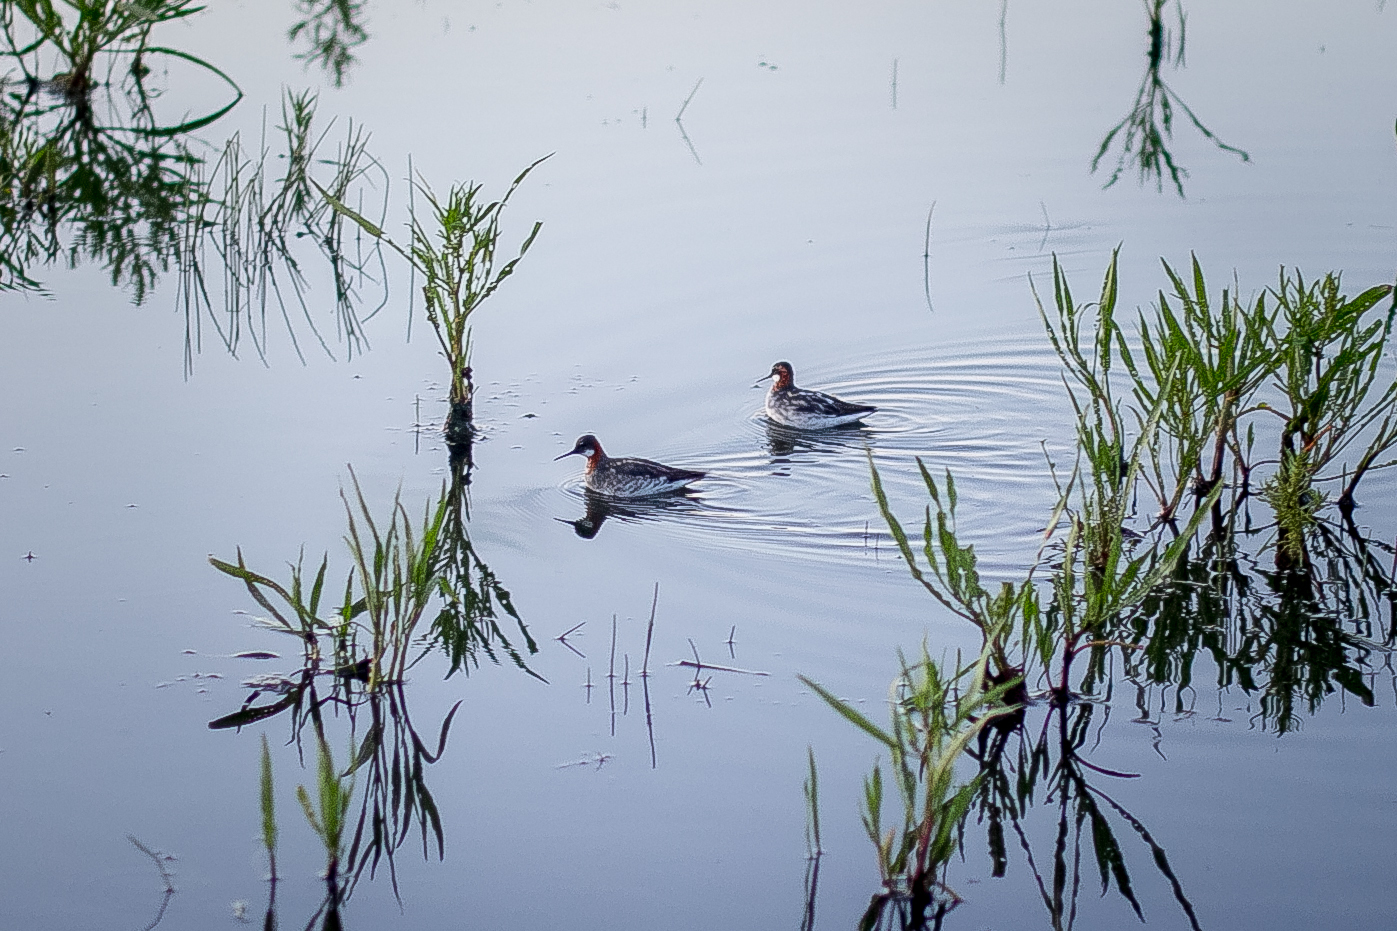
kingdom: Animalia
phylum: Chordata
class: Aves
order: Charadriiformes
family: Scolopacidae
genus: Phalaropus
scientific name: Phalaropus lobatus
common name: Red-necked phalarope
